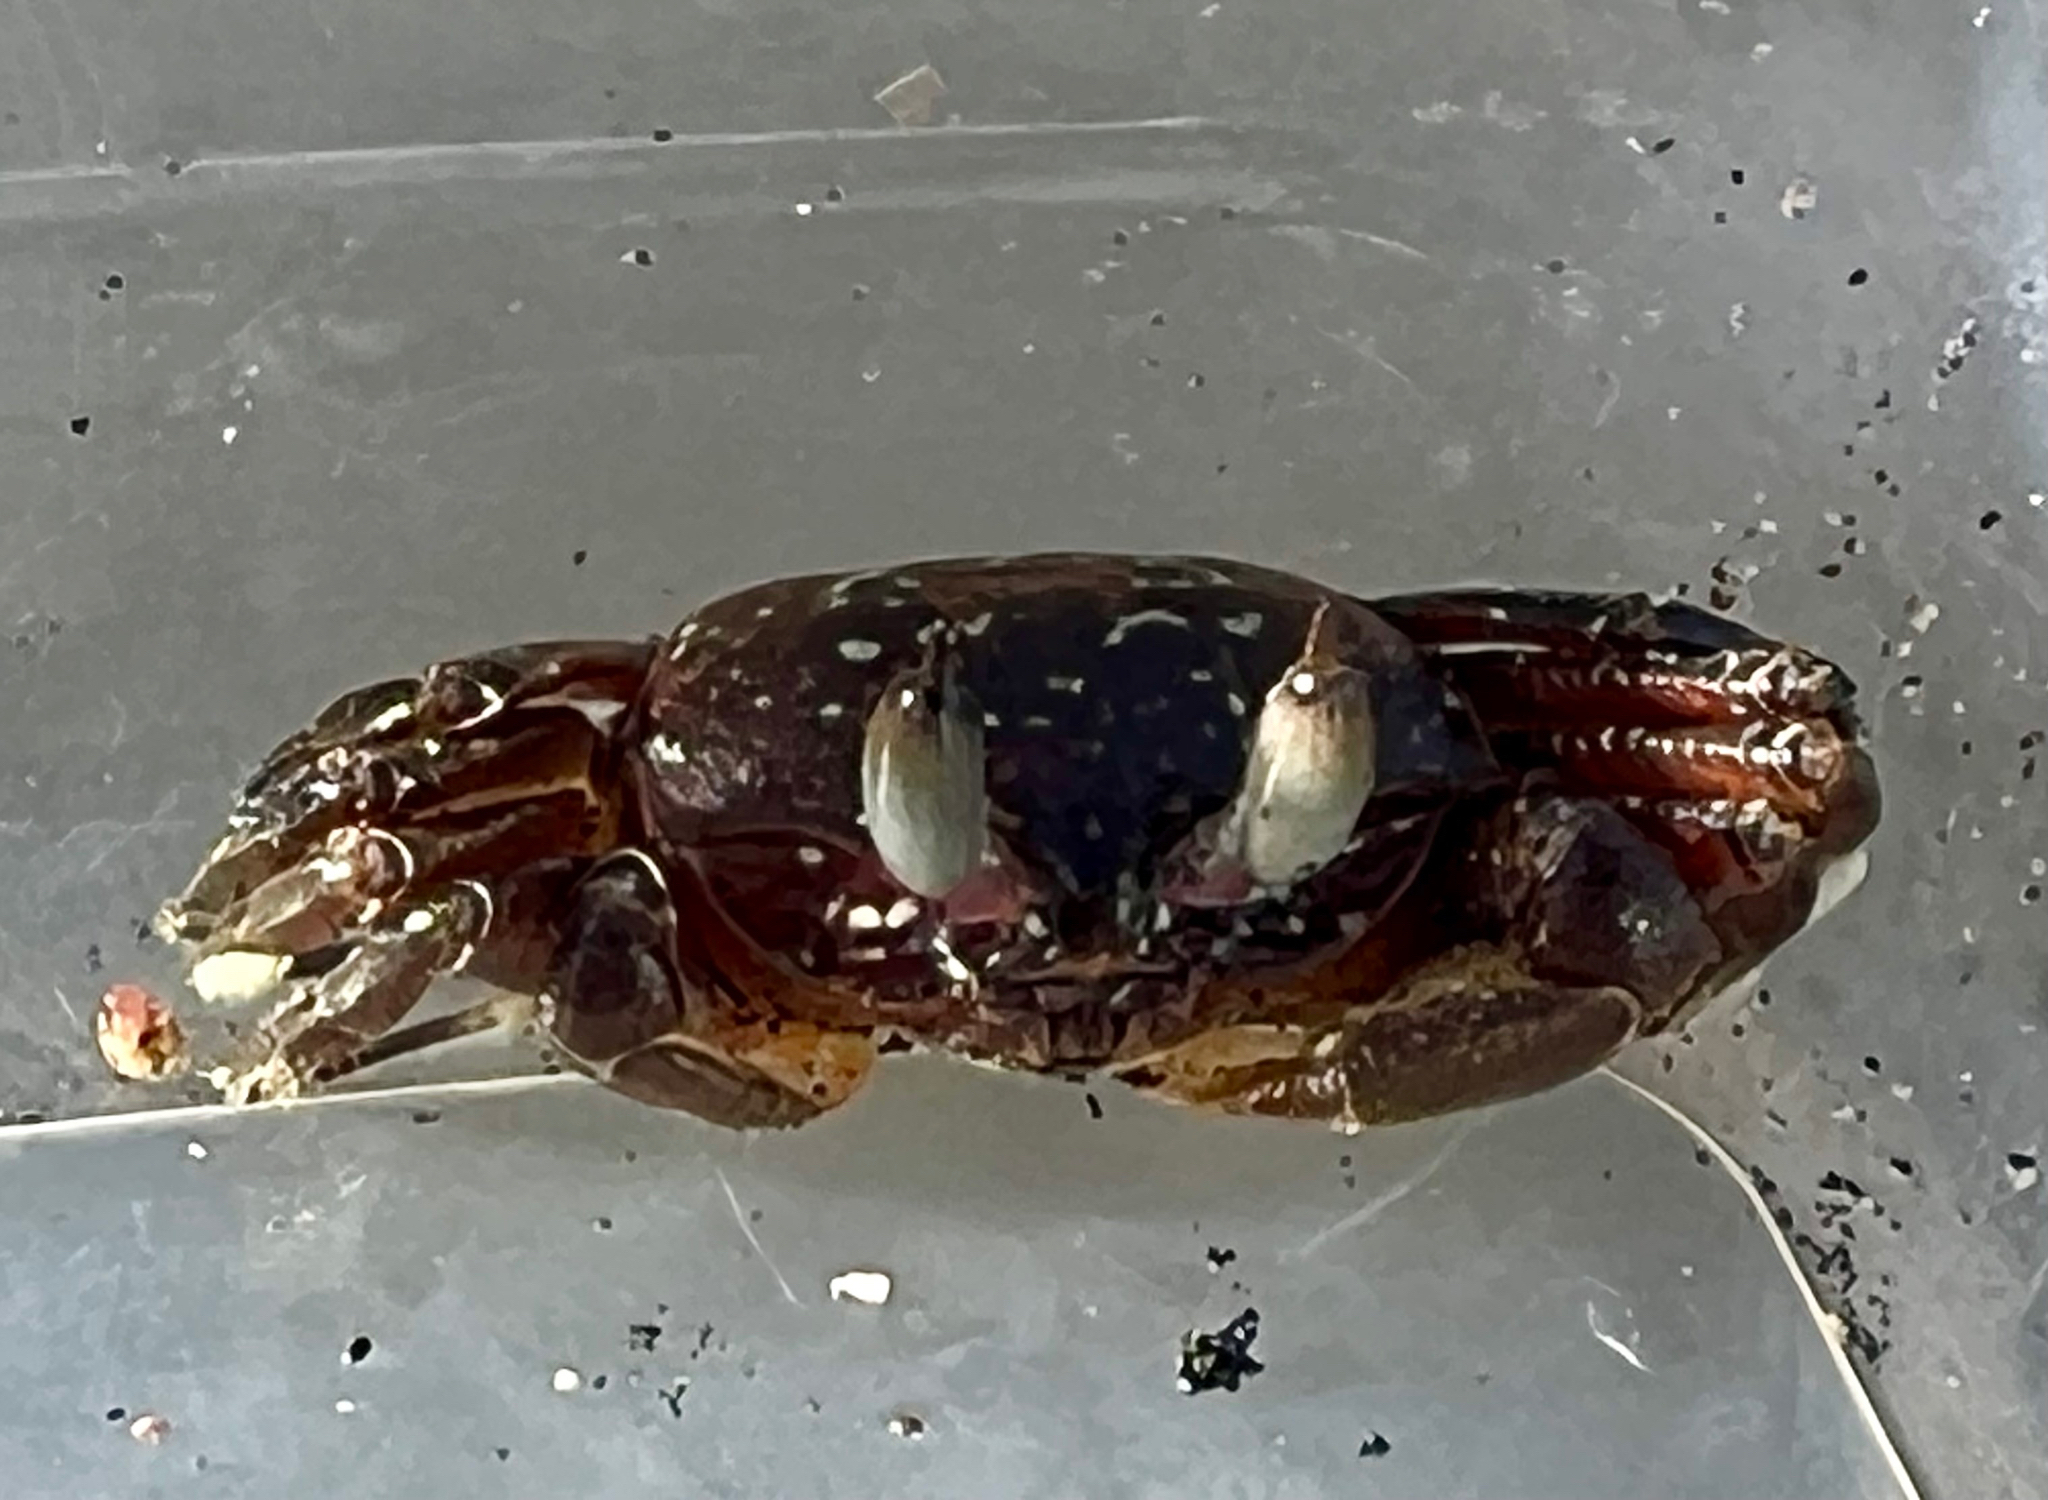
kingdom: Animalia
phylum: Arthropoda
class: Malacostraca
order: Decapoda
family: Ocypodidae
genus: Ocypode
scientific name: Ocypode gaudichaudii
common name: Pacific ghost crab
